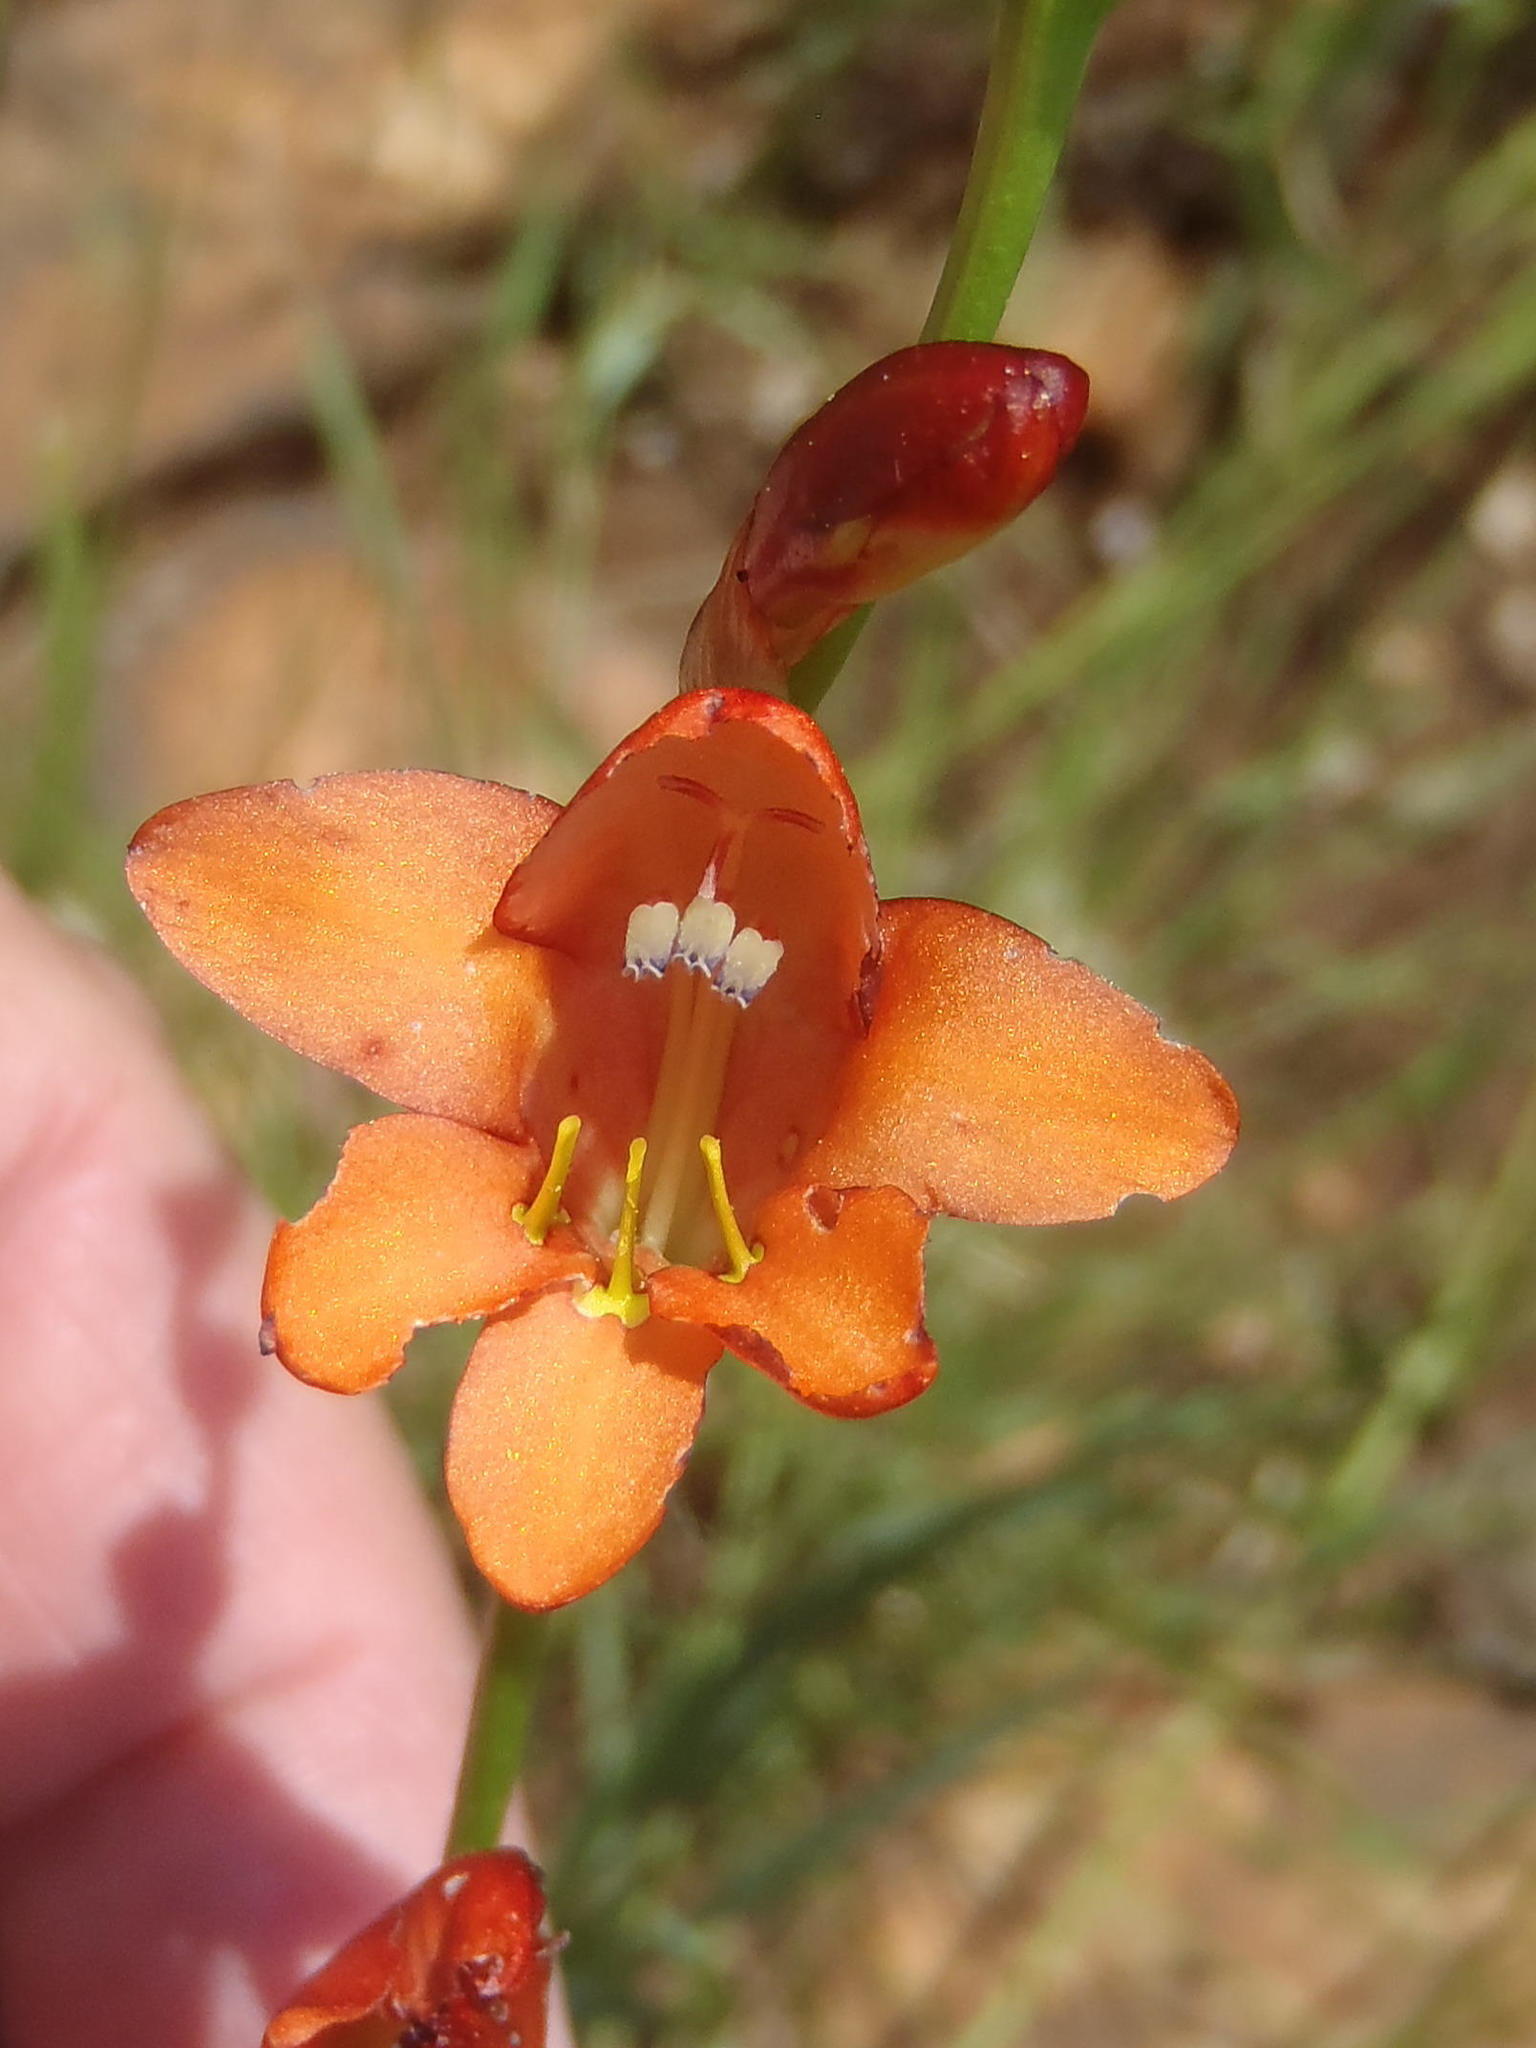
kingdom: Plantae
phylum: Tracheophyta
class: Liliopsida
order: Asparagales
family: Iridaceae
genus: Tritonia
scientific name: Tritonia nelsonii
